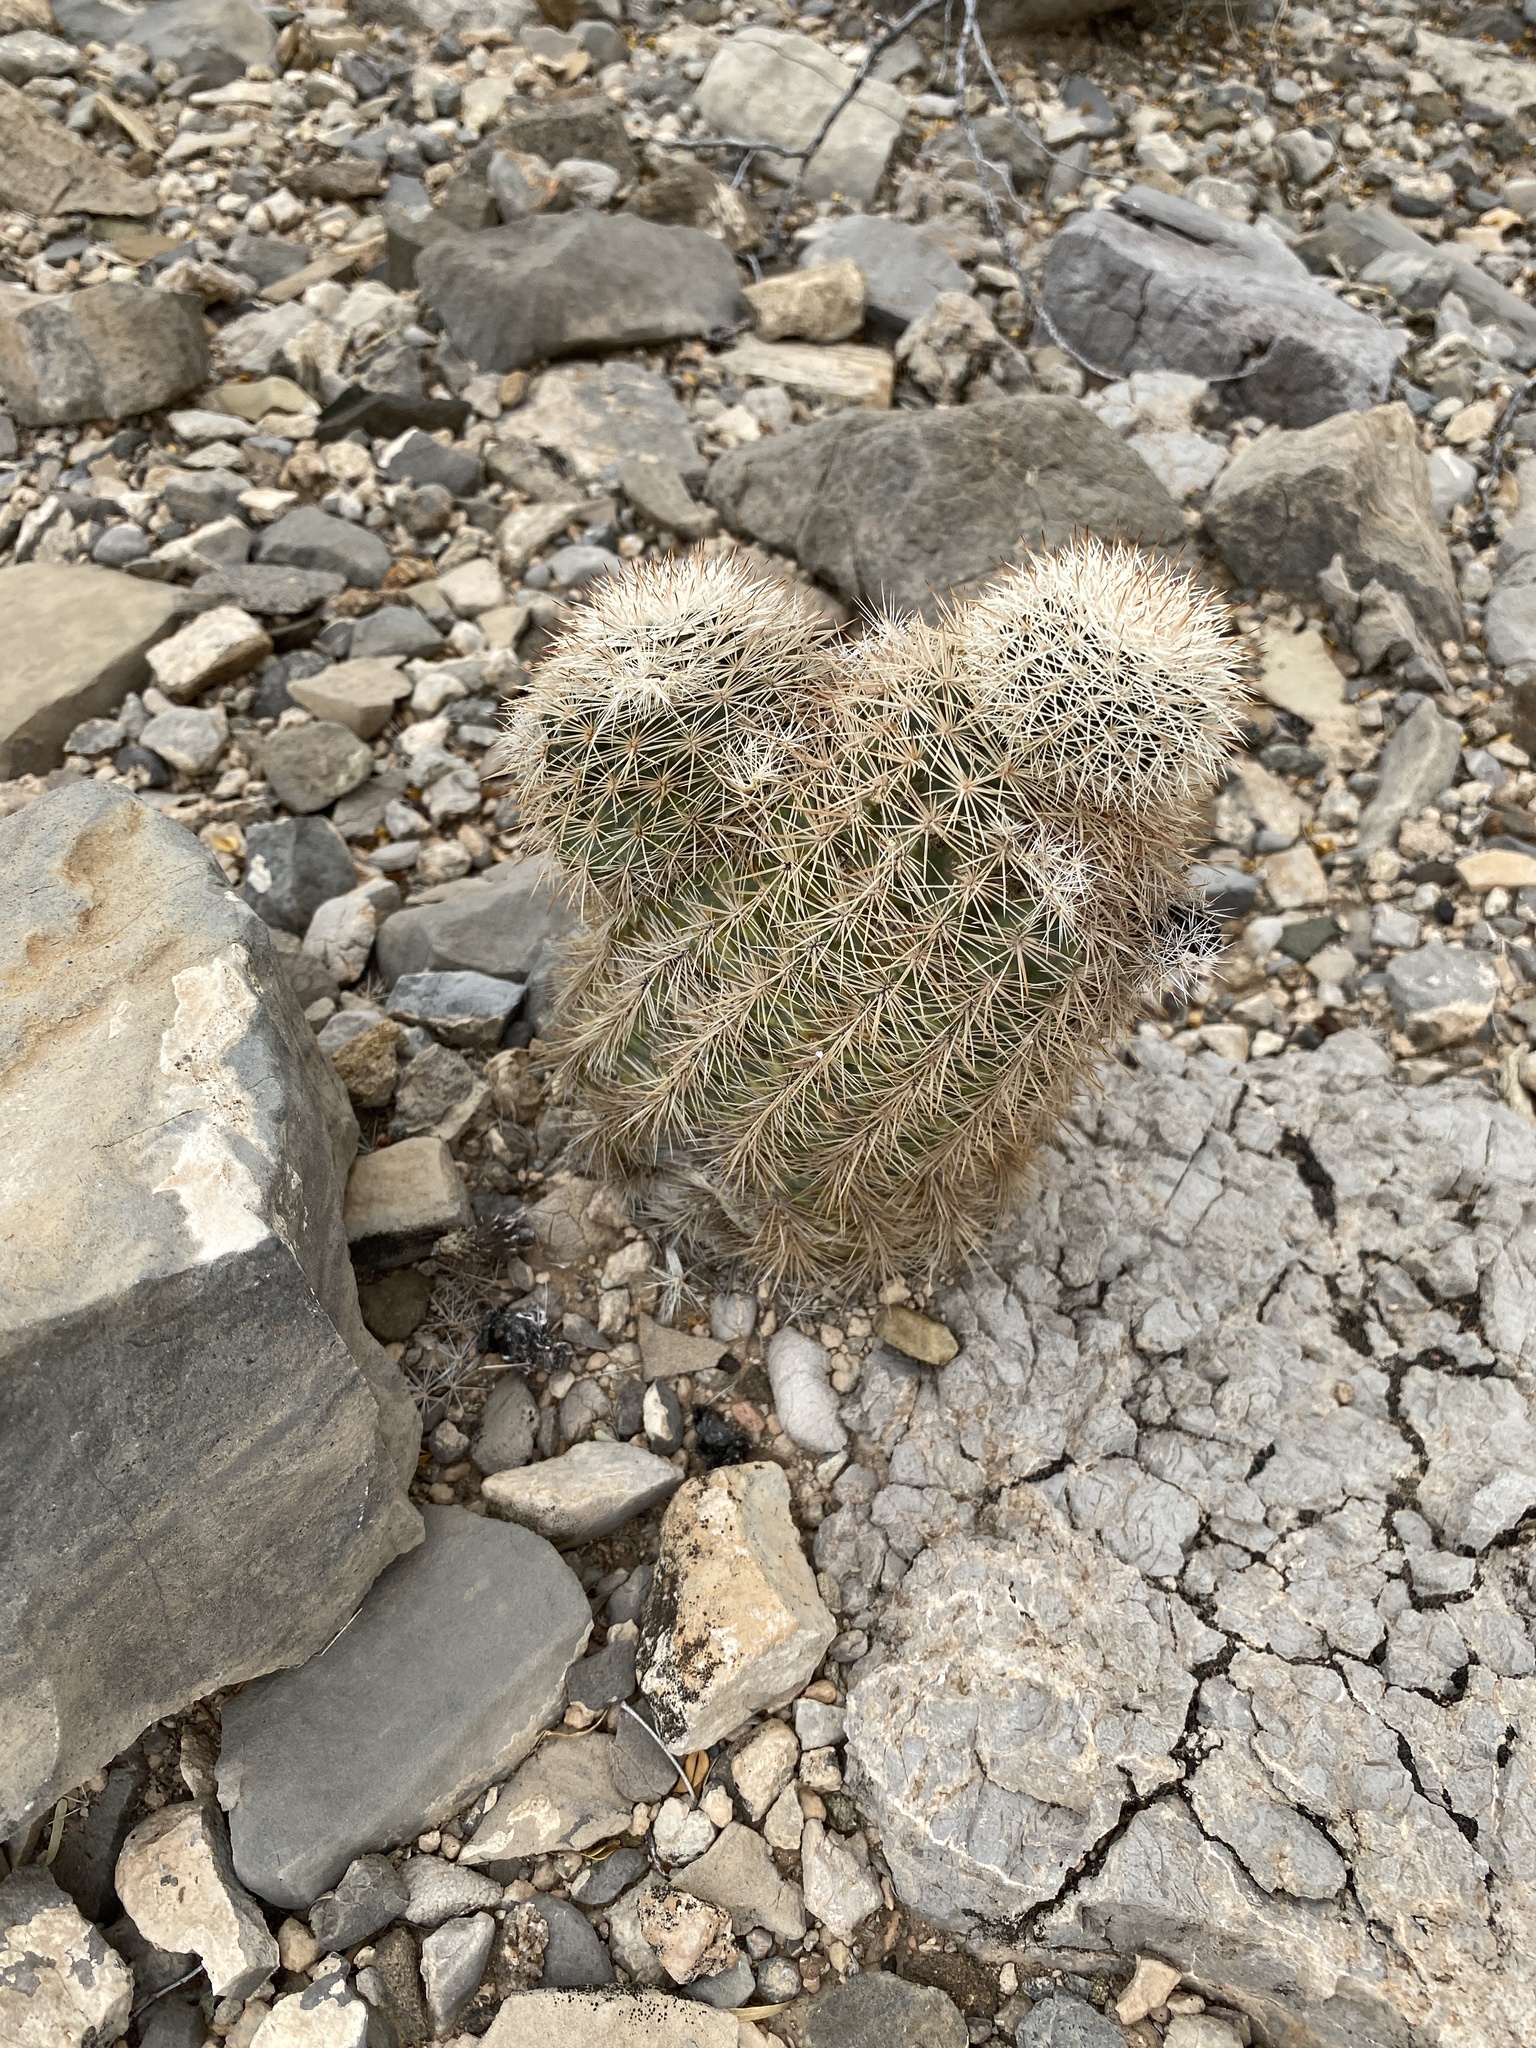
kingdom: Plantae
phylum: Tracheophyta
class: Magnoliopsida
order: Caryophyllales
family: Cactaceae
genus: Echinocereus
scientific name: Echinocereus dasyacanthus
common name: Spiny hedgehog cactus
